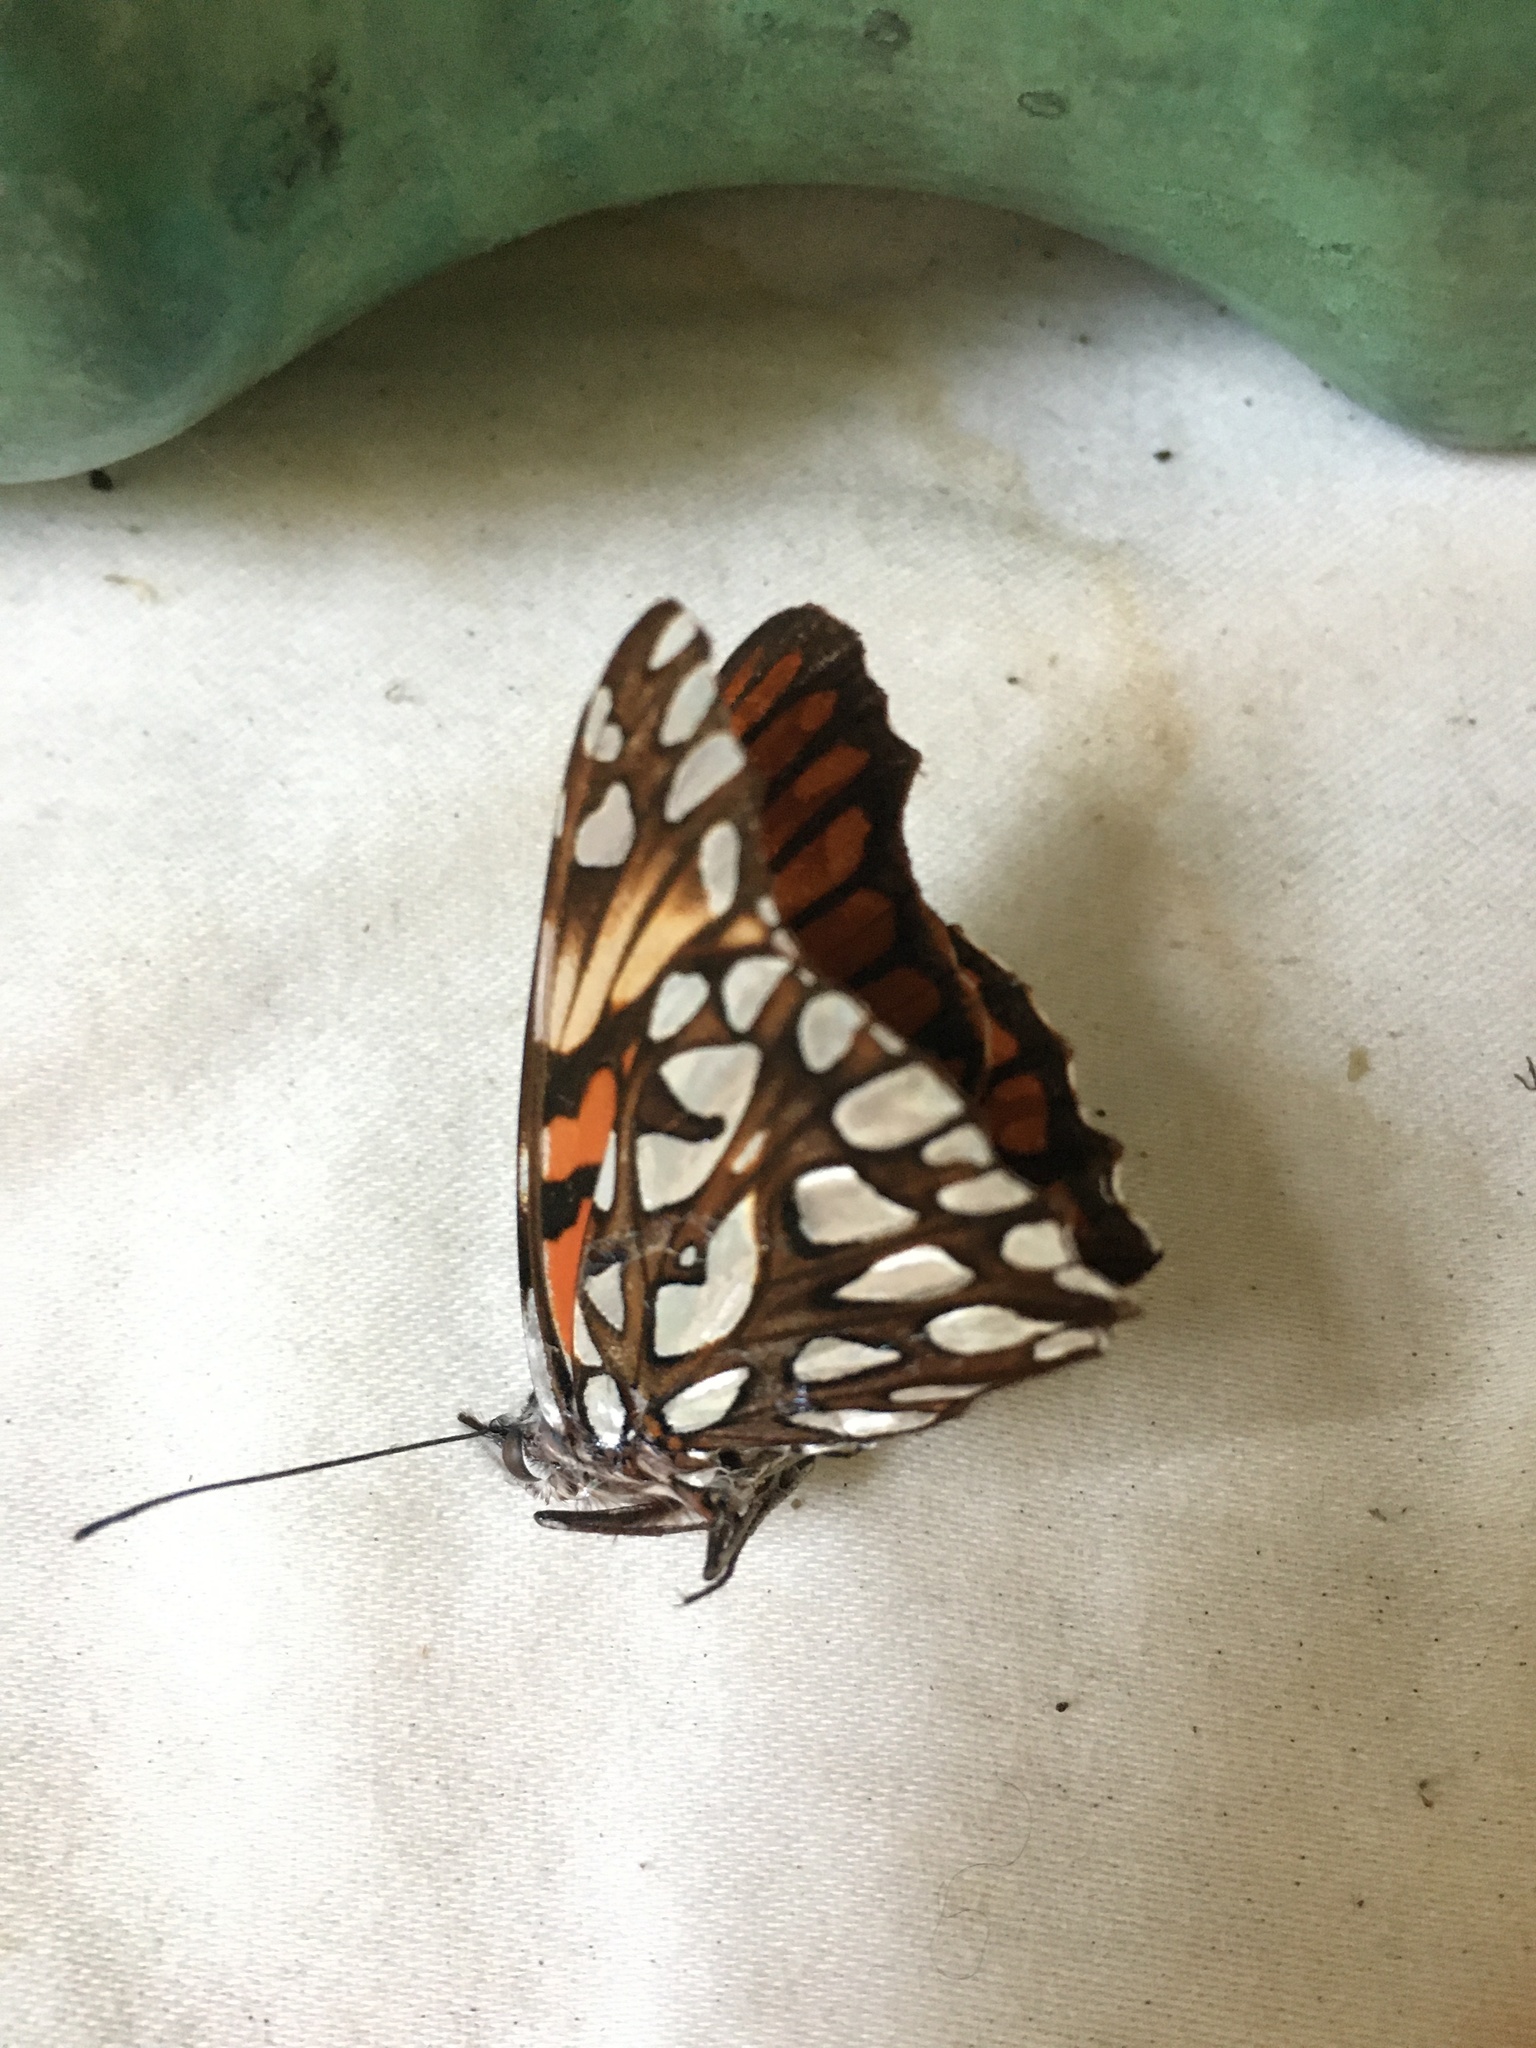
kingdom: Animalia
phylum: Arthropoda
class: Insecta
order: Lepidoptera
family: Nymphalidae
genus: Dione
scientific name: Dione glycera
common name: Andean silverspot
